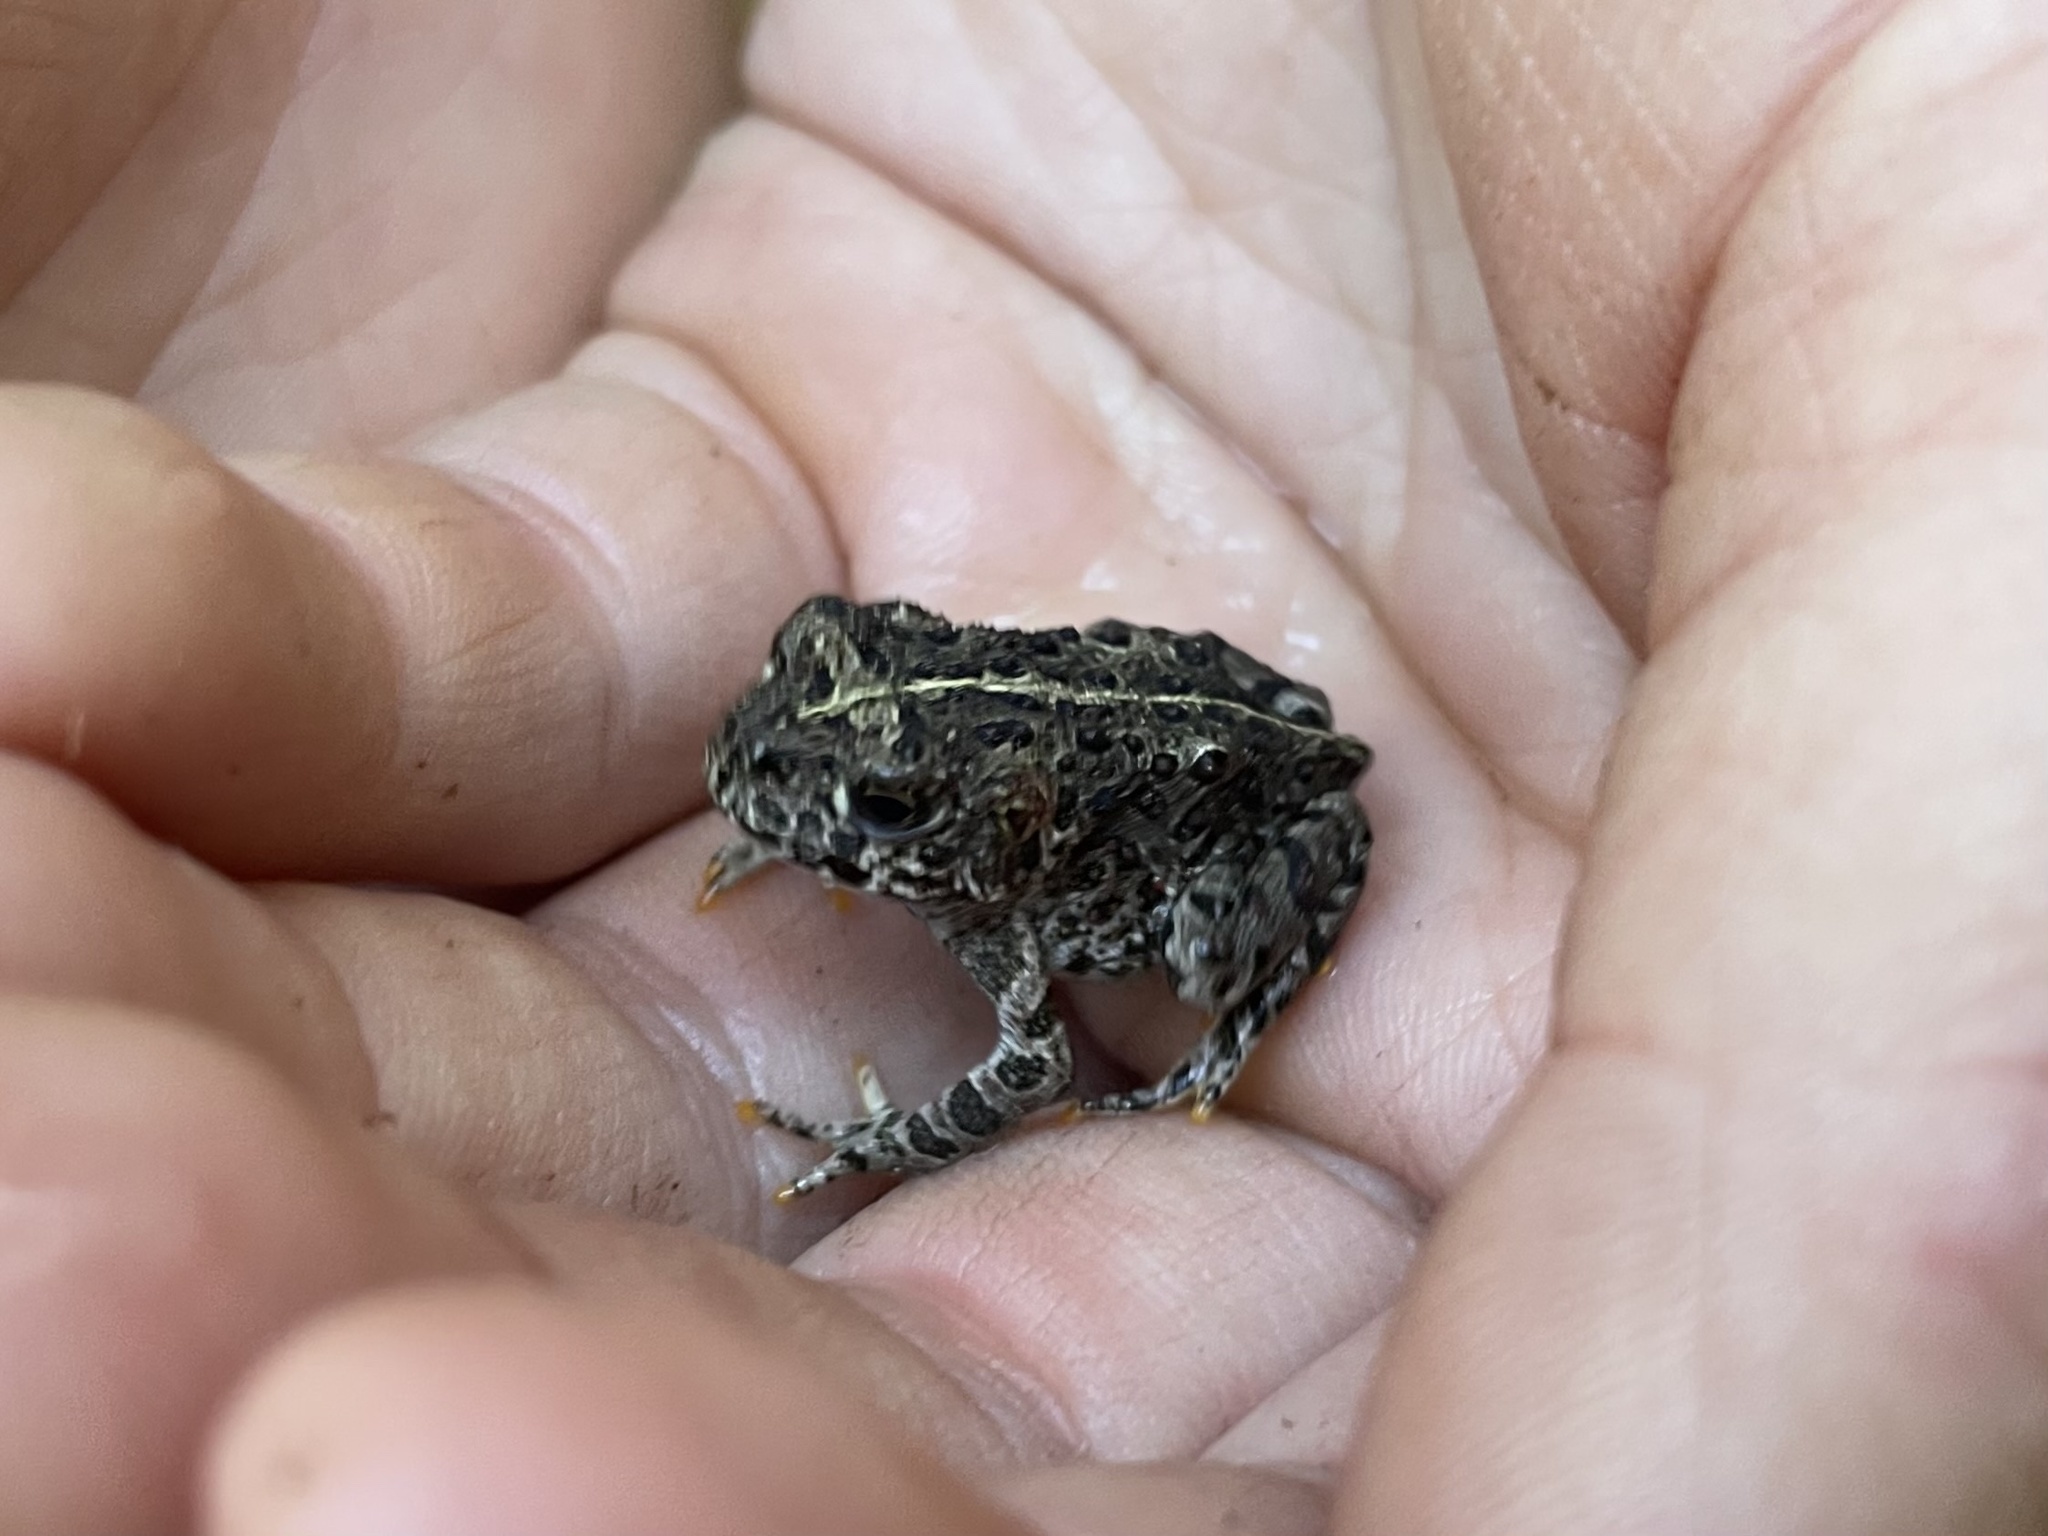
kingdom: Animalia
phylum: Chordata
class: Amphibia
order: Anura
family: Bufonidae
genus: Anaxyrus
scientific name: Anaxyrus boreas
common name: Western toad
